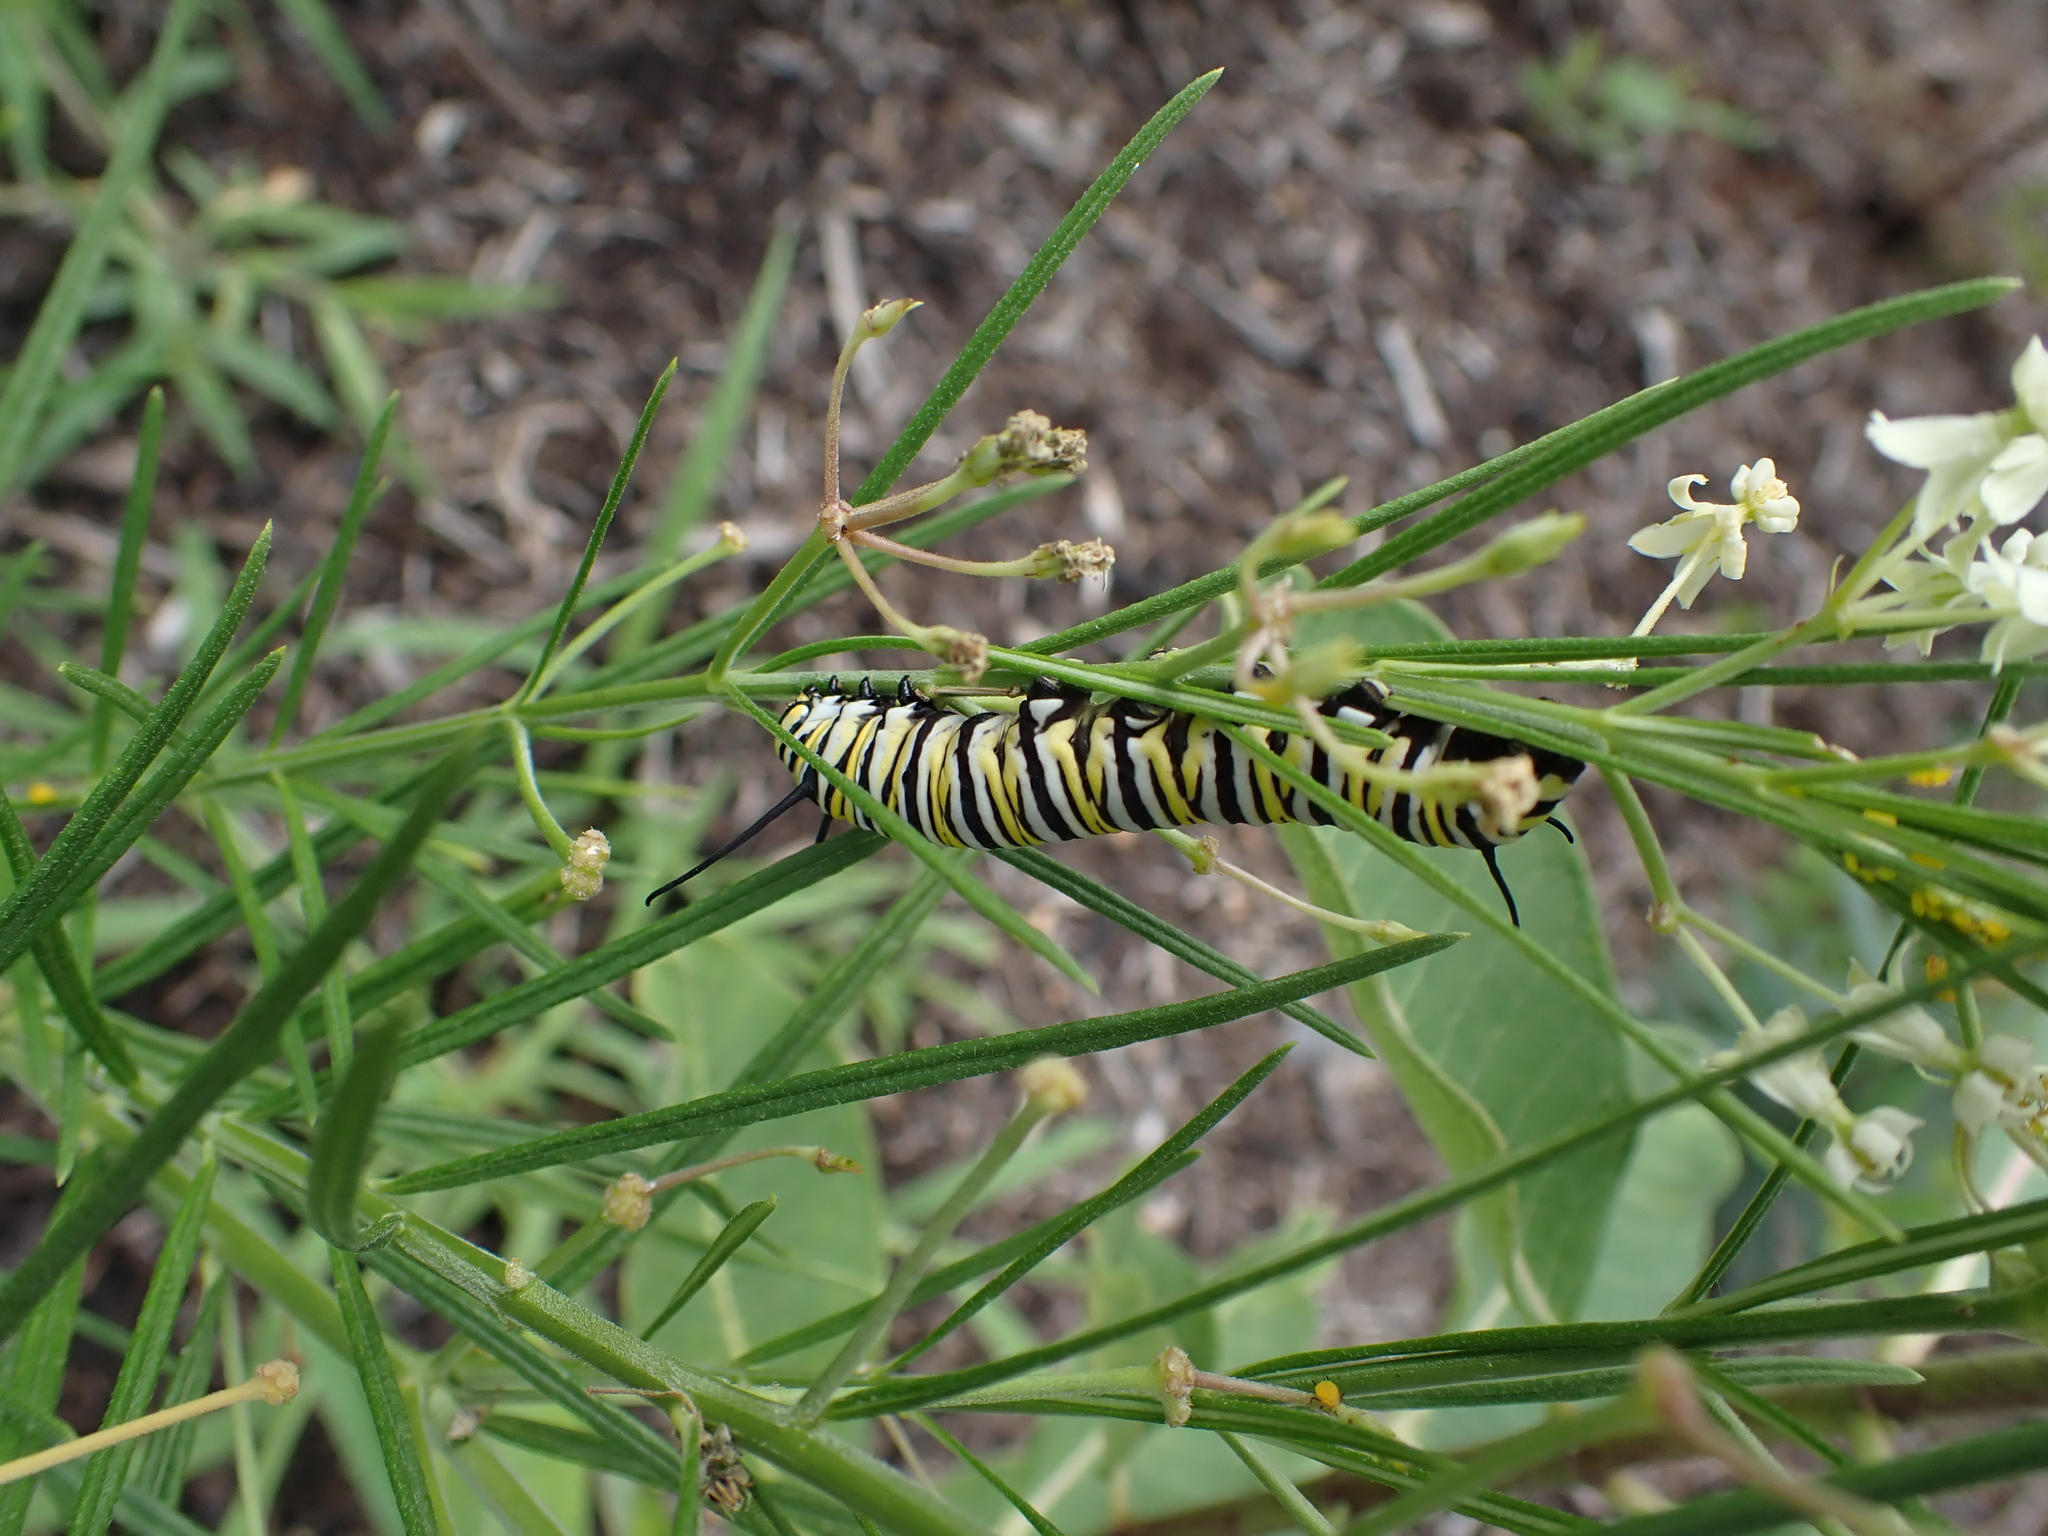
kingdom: Animalia
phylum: Arthropoda
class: Insecta
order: Lepidoptera
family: Nymphalidae
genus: Danaus
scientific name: Danaus plexippus
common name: Monarch
